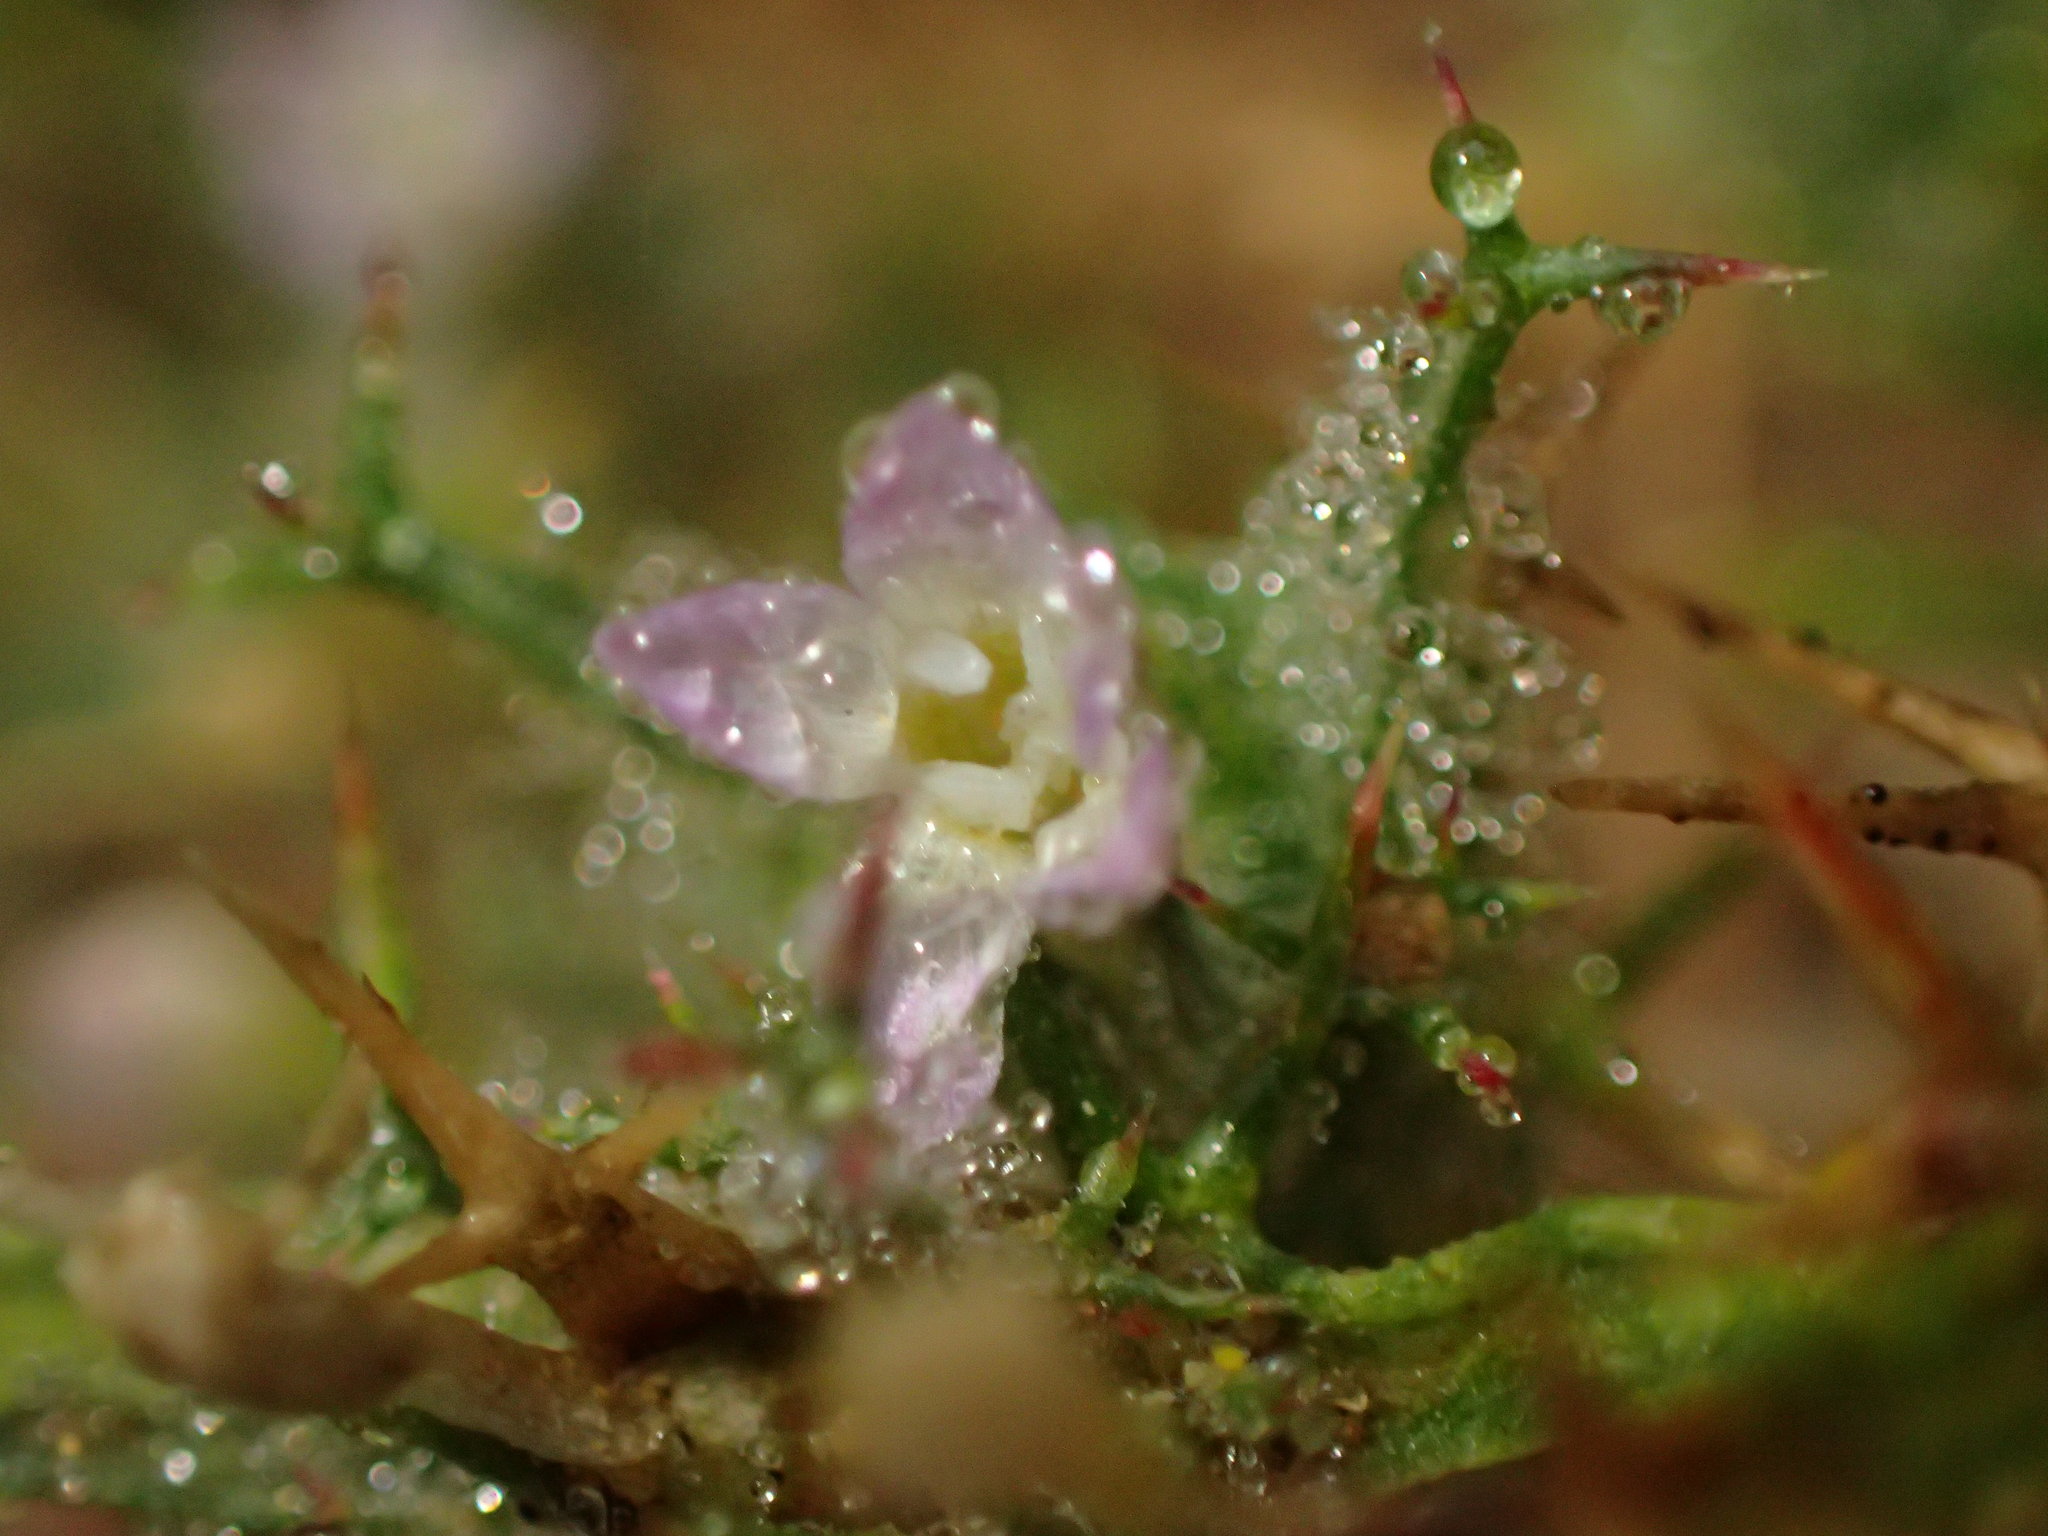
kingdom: Plantae
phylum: Tracheophyta
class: Magnoliopsida
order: Ericales
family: Polemoniaceae
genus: Navarretia
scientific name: Navarretia hamata
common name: Hooked navarretia
